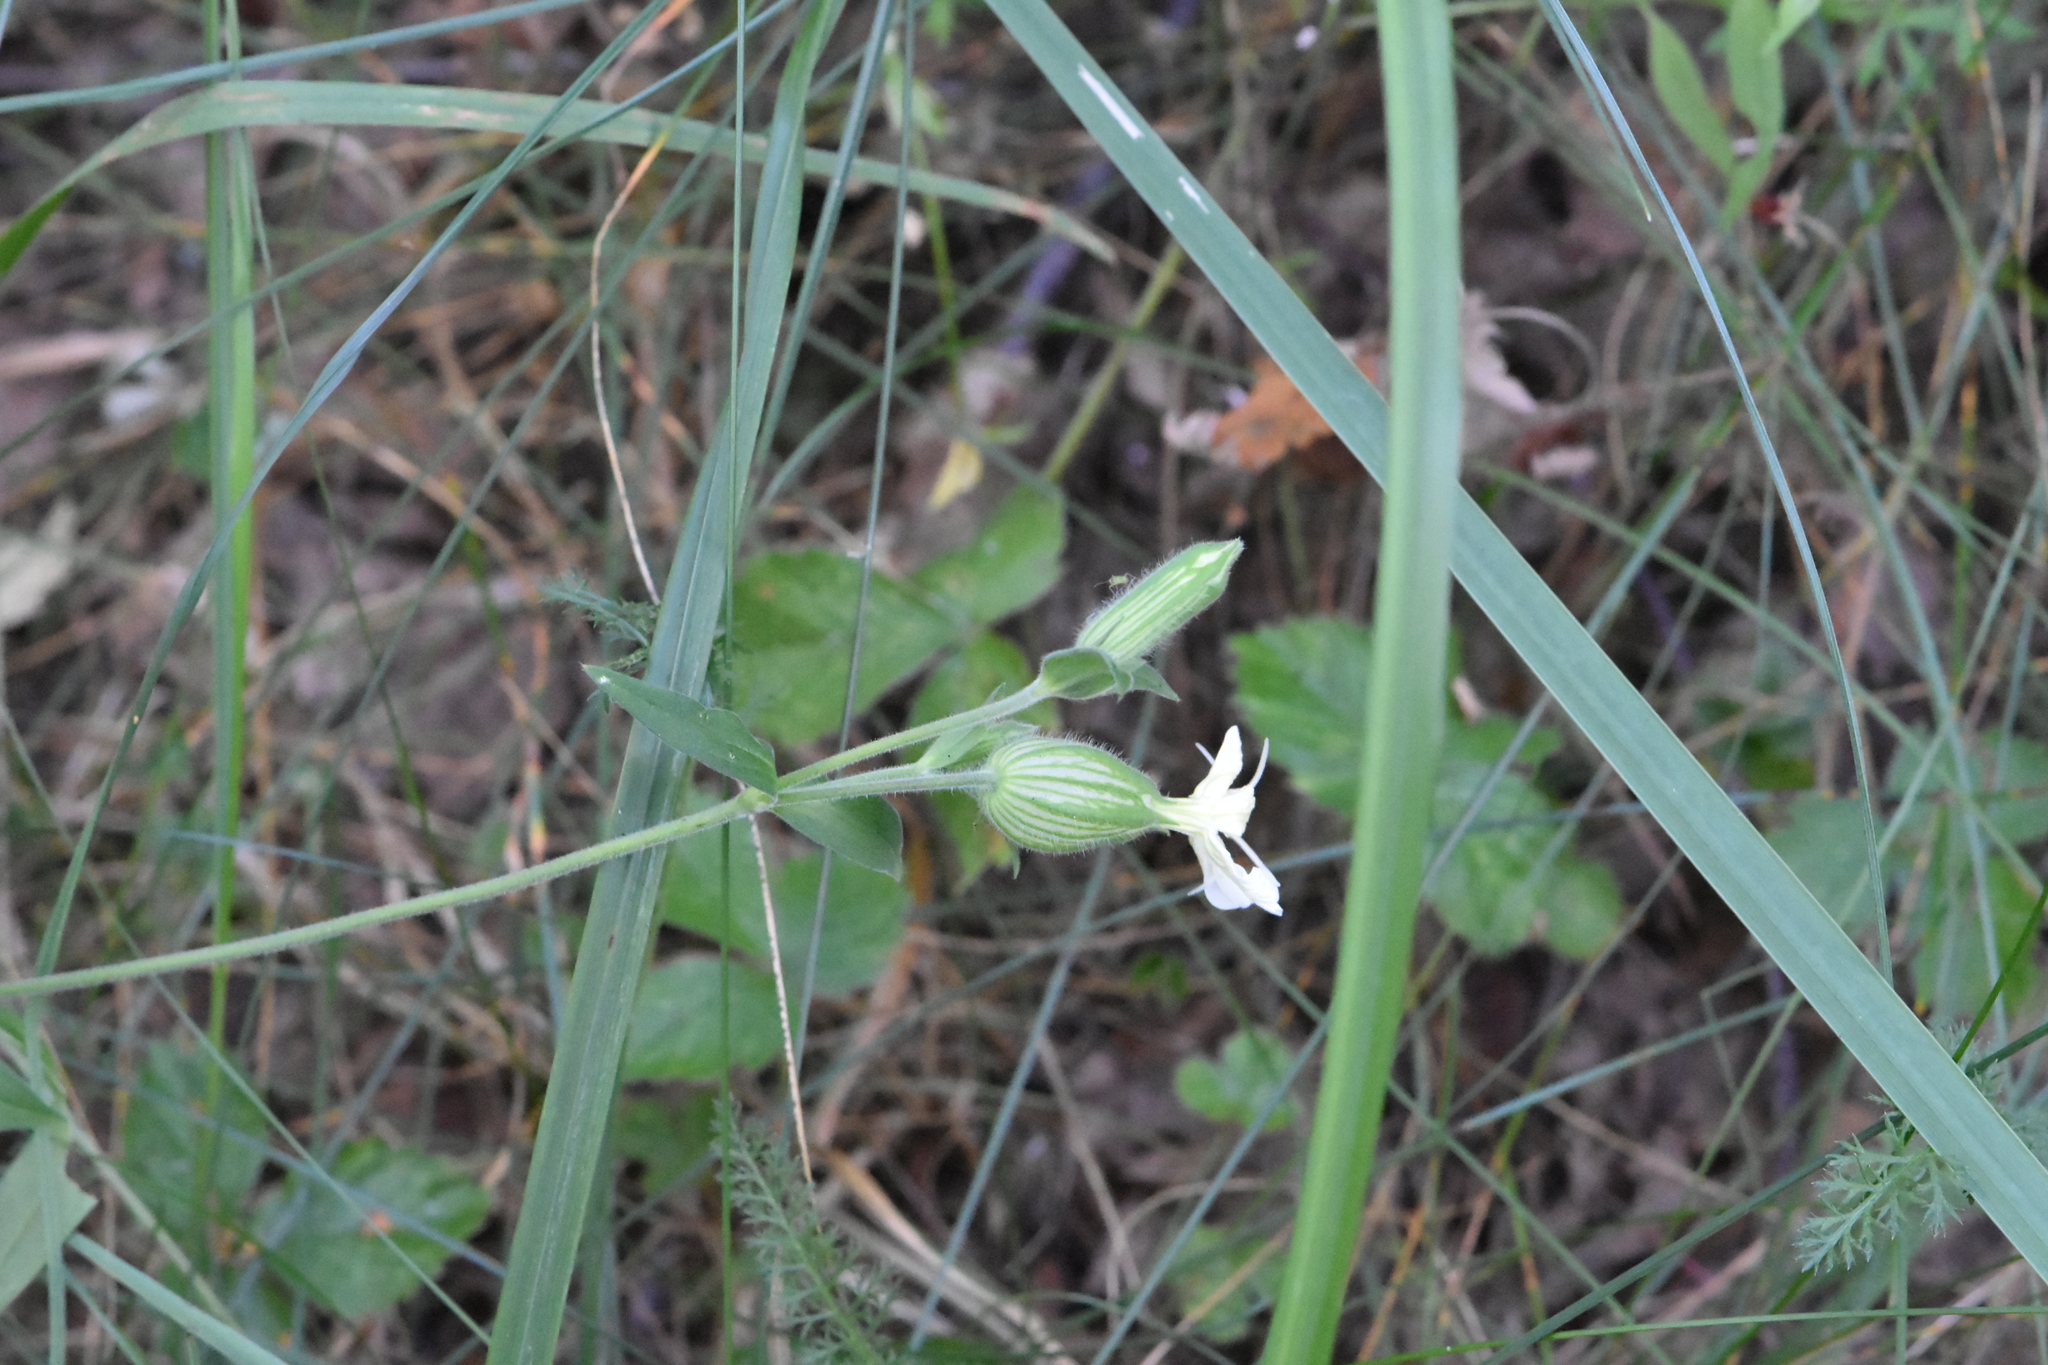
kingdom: Plantae
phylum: Tracheophyta
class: Magnoliopsida
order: Caryophyllales
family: Caryophyllaceae
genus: Silene
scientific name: Silene latifolia
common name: White campion
